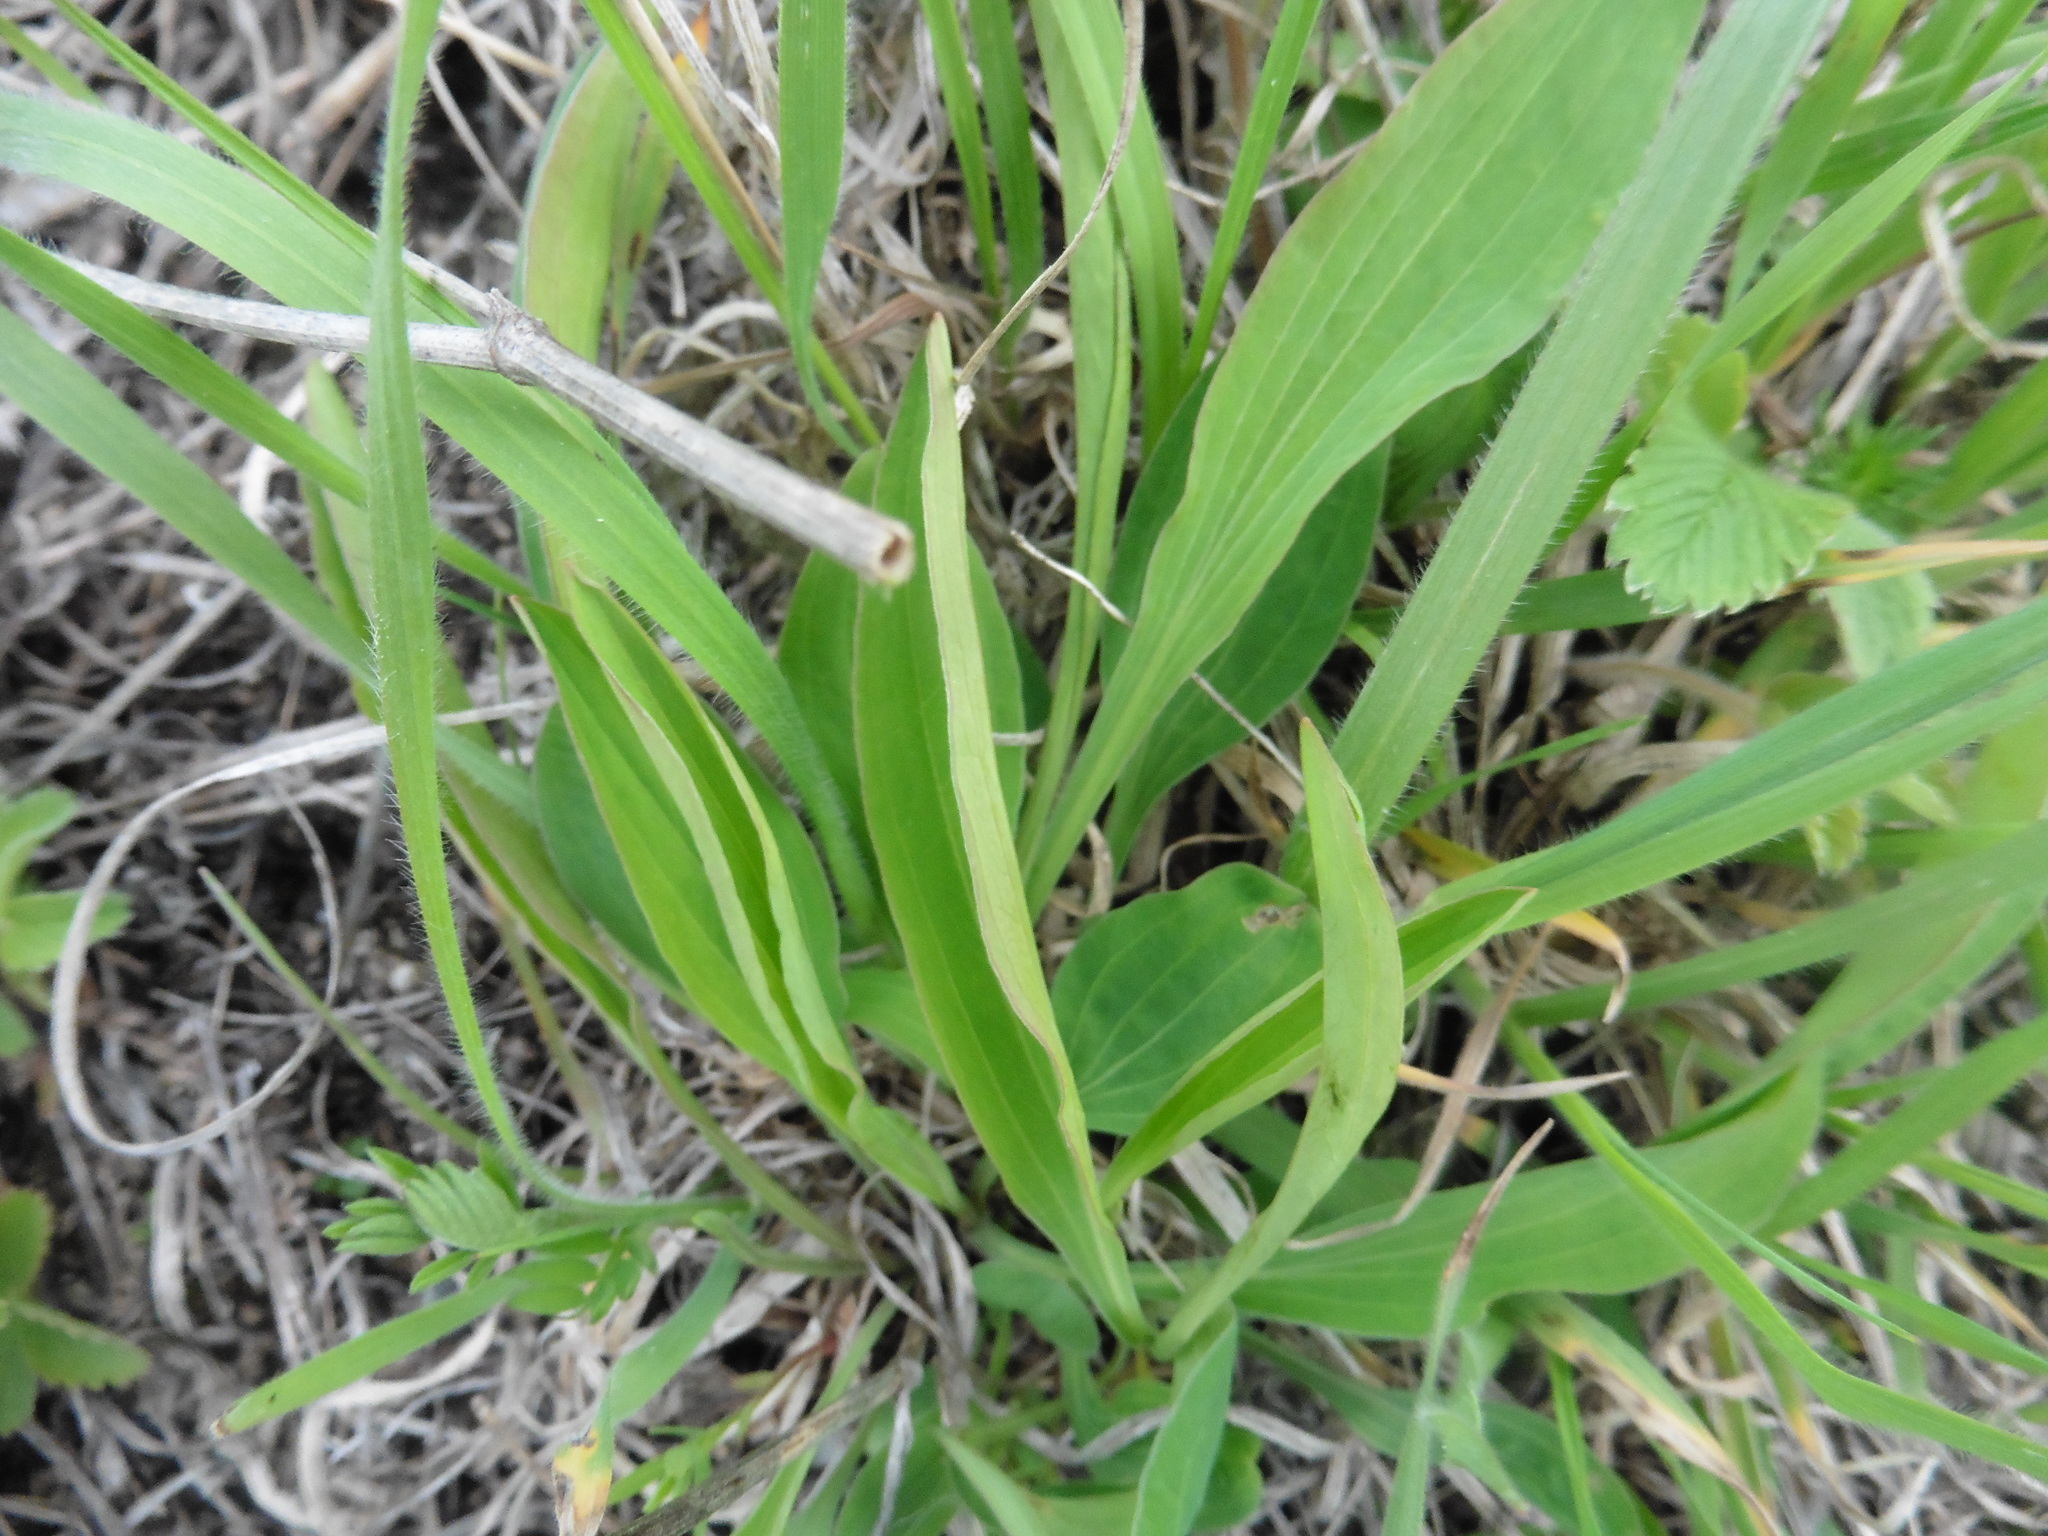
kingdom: Plantae
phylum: Tracheophyta
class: Magnoliopsida
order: Apiales
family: Apiaceae
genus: Bupleurum
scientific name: Bupleurum falcatum
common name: Sickle-leaved hare's-ear
